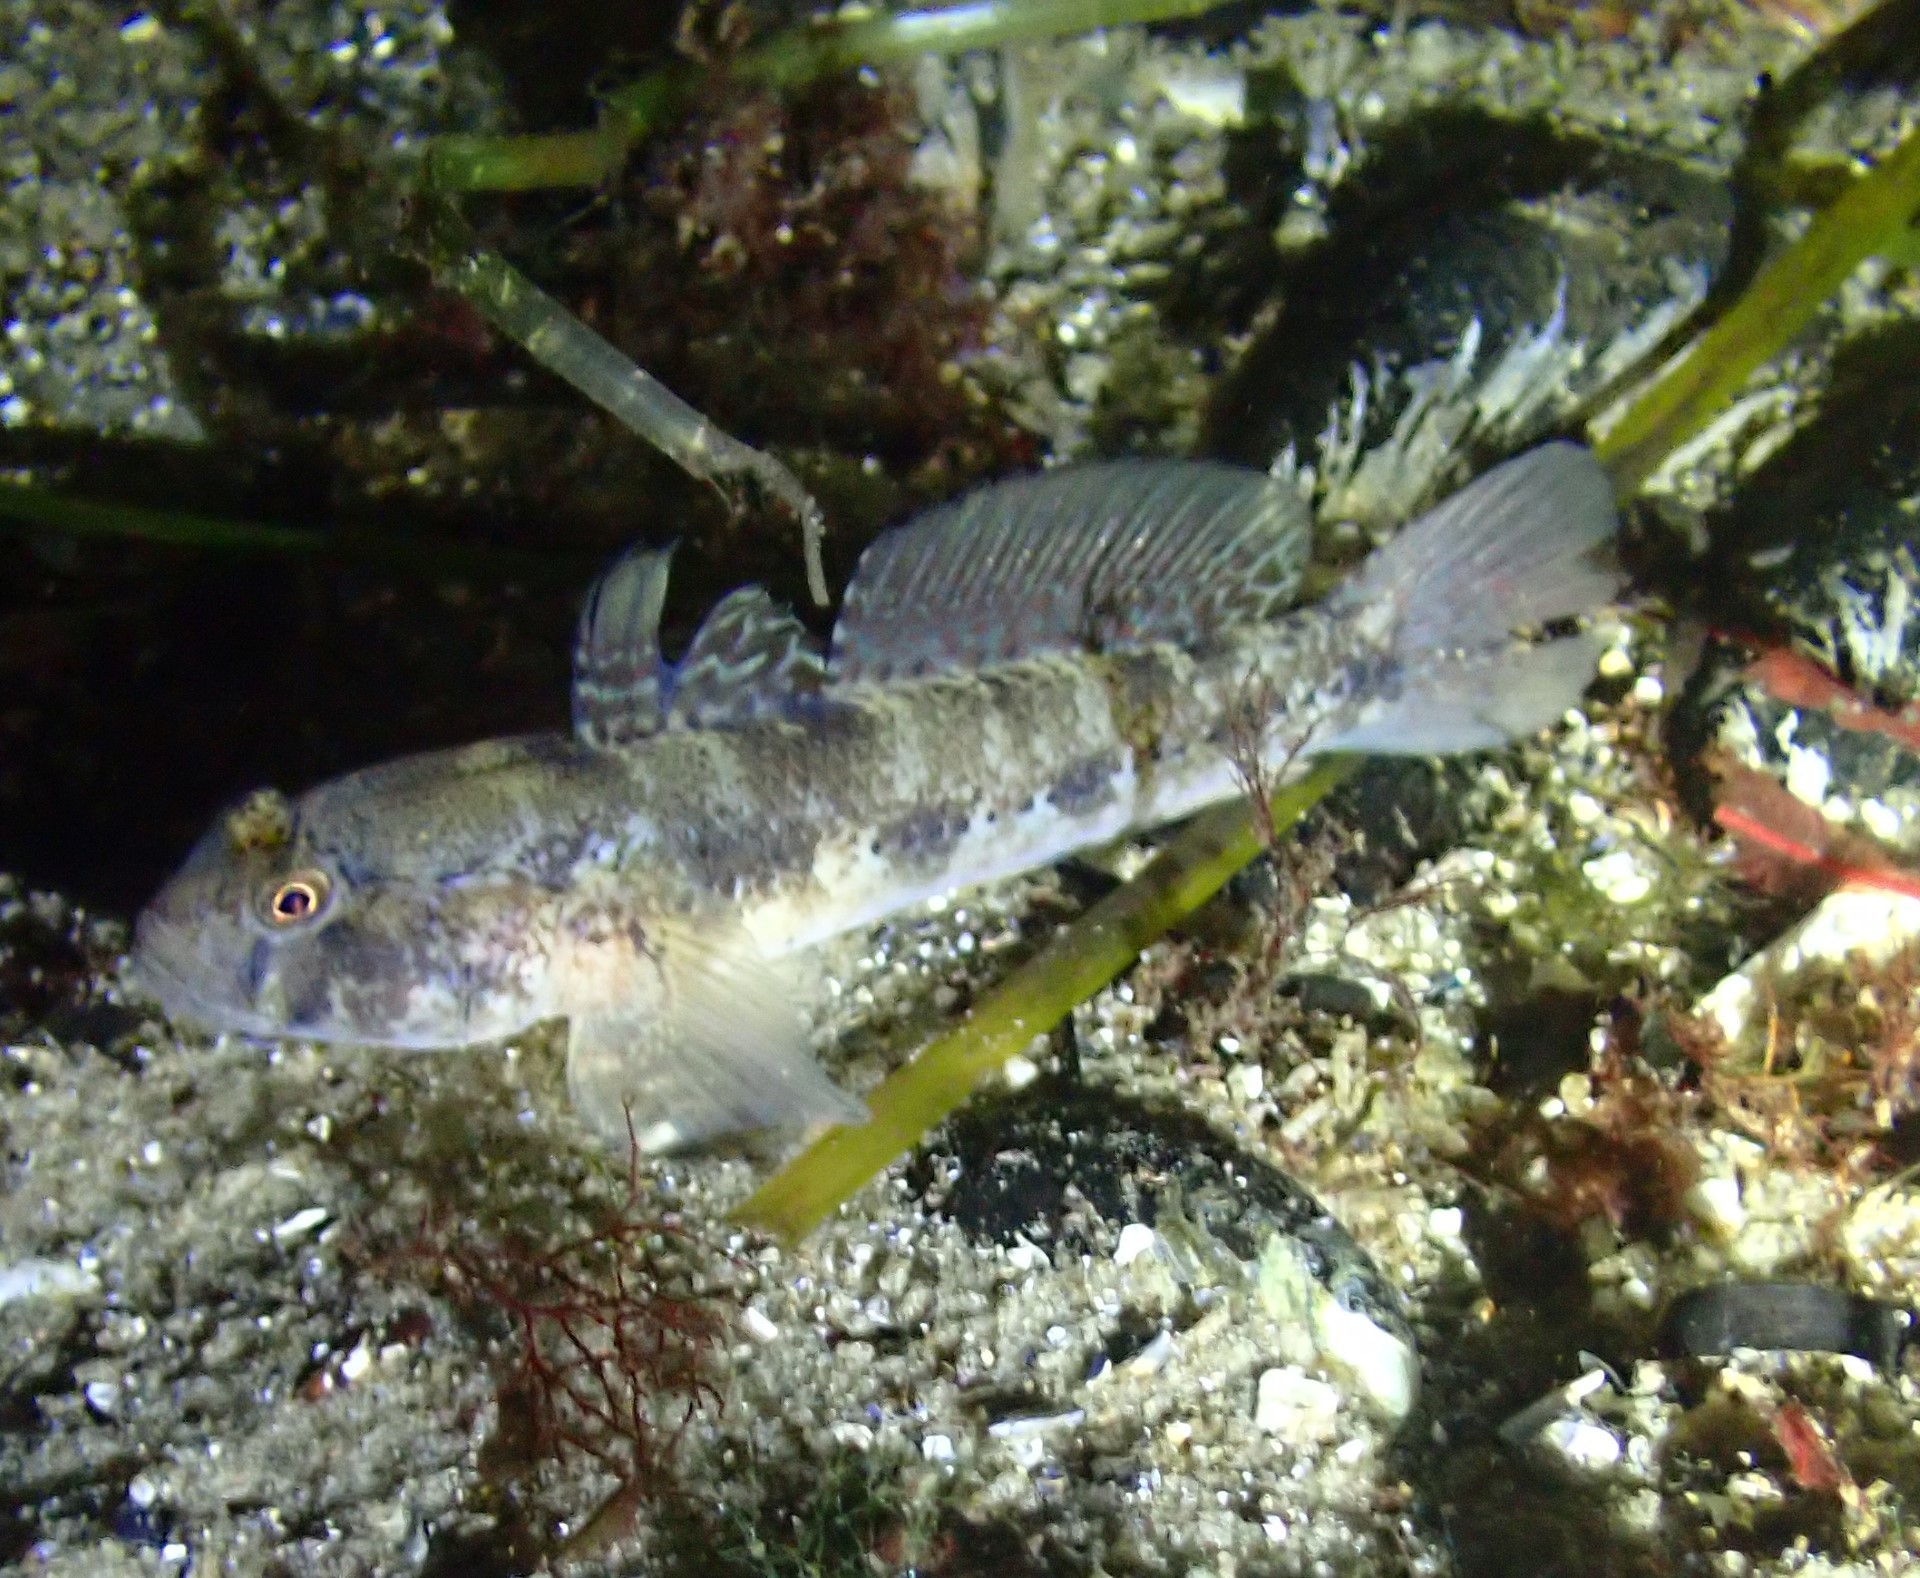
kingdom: Animalia
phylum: Chordata
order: Perciformes
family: Gobiidae
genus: Gobius
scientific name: Gobius niger
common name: Black goby
